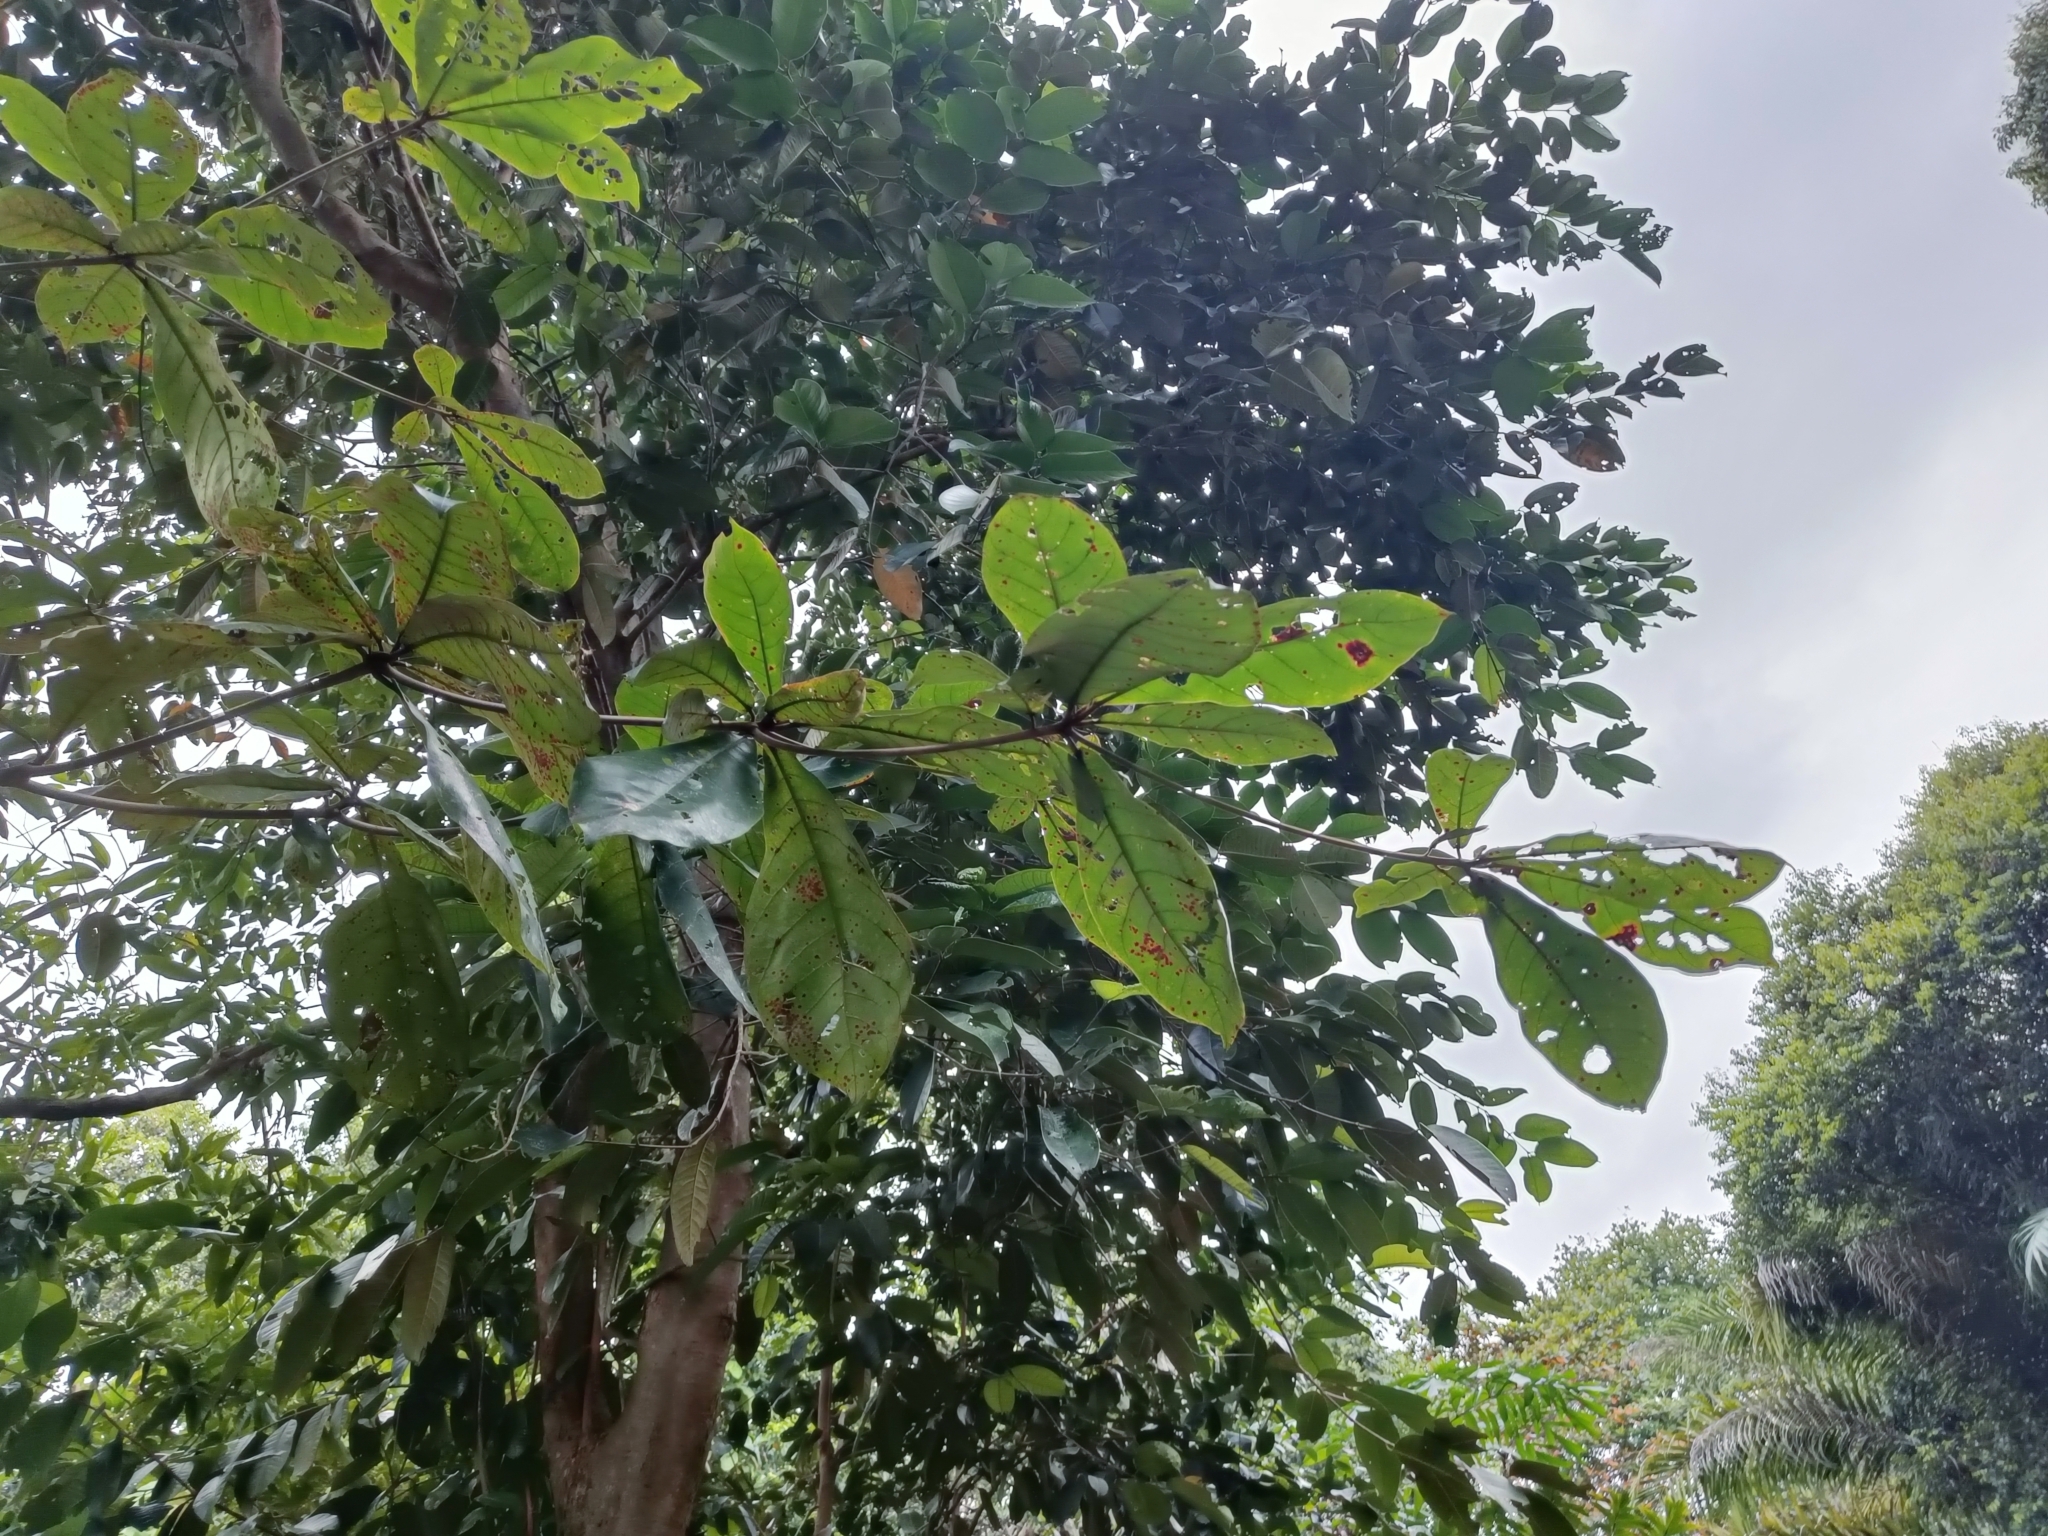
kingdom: Plantae
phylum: Tracheophyta
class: Magnoliopsida
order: Myrtales
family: Combretaceae
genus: Terminalia
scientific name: Terminalia catappa
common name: Tropical almond
